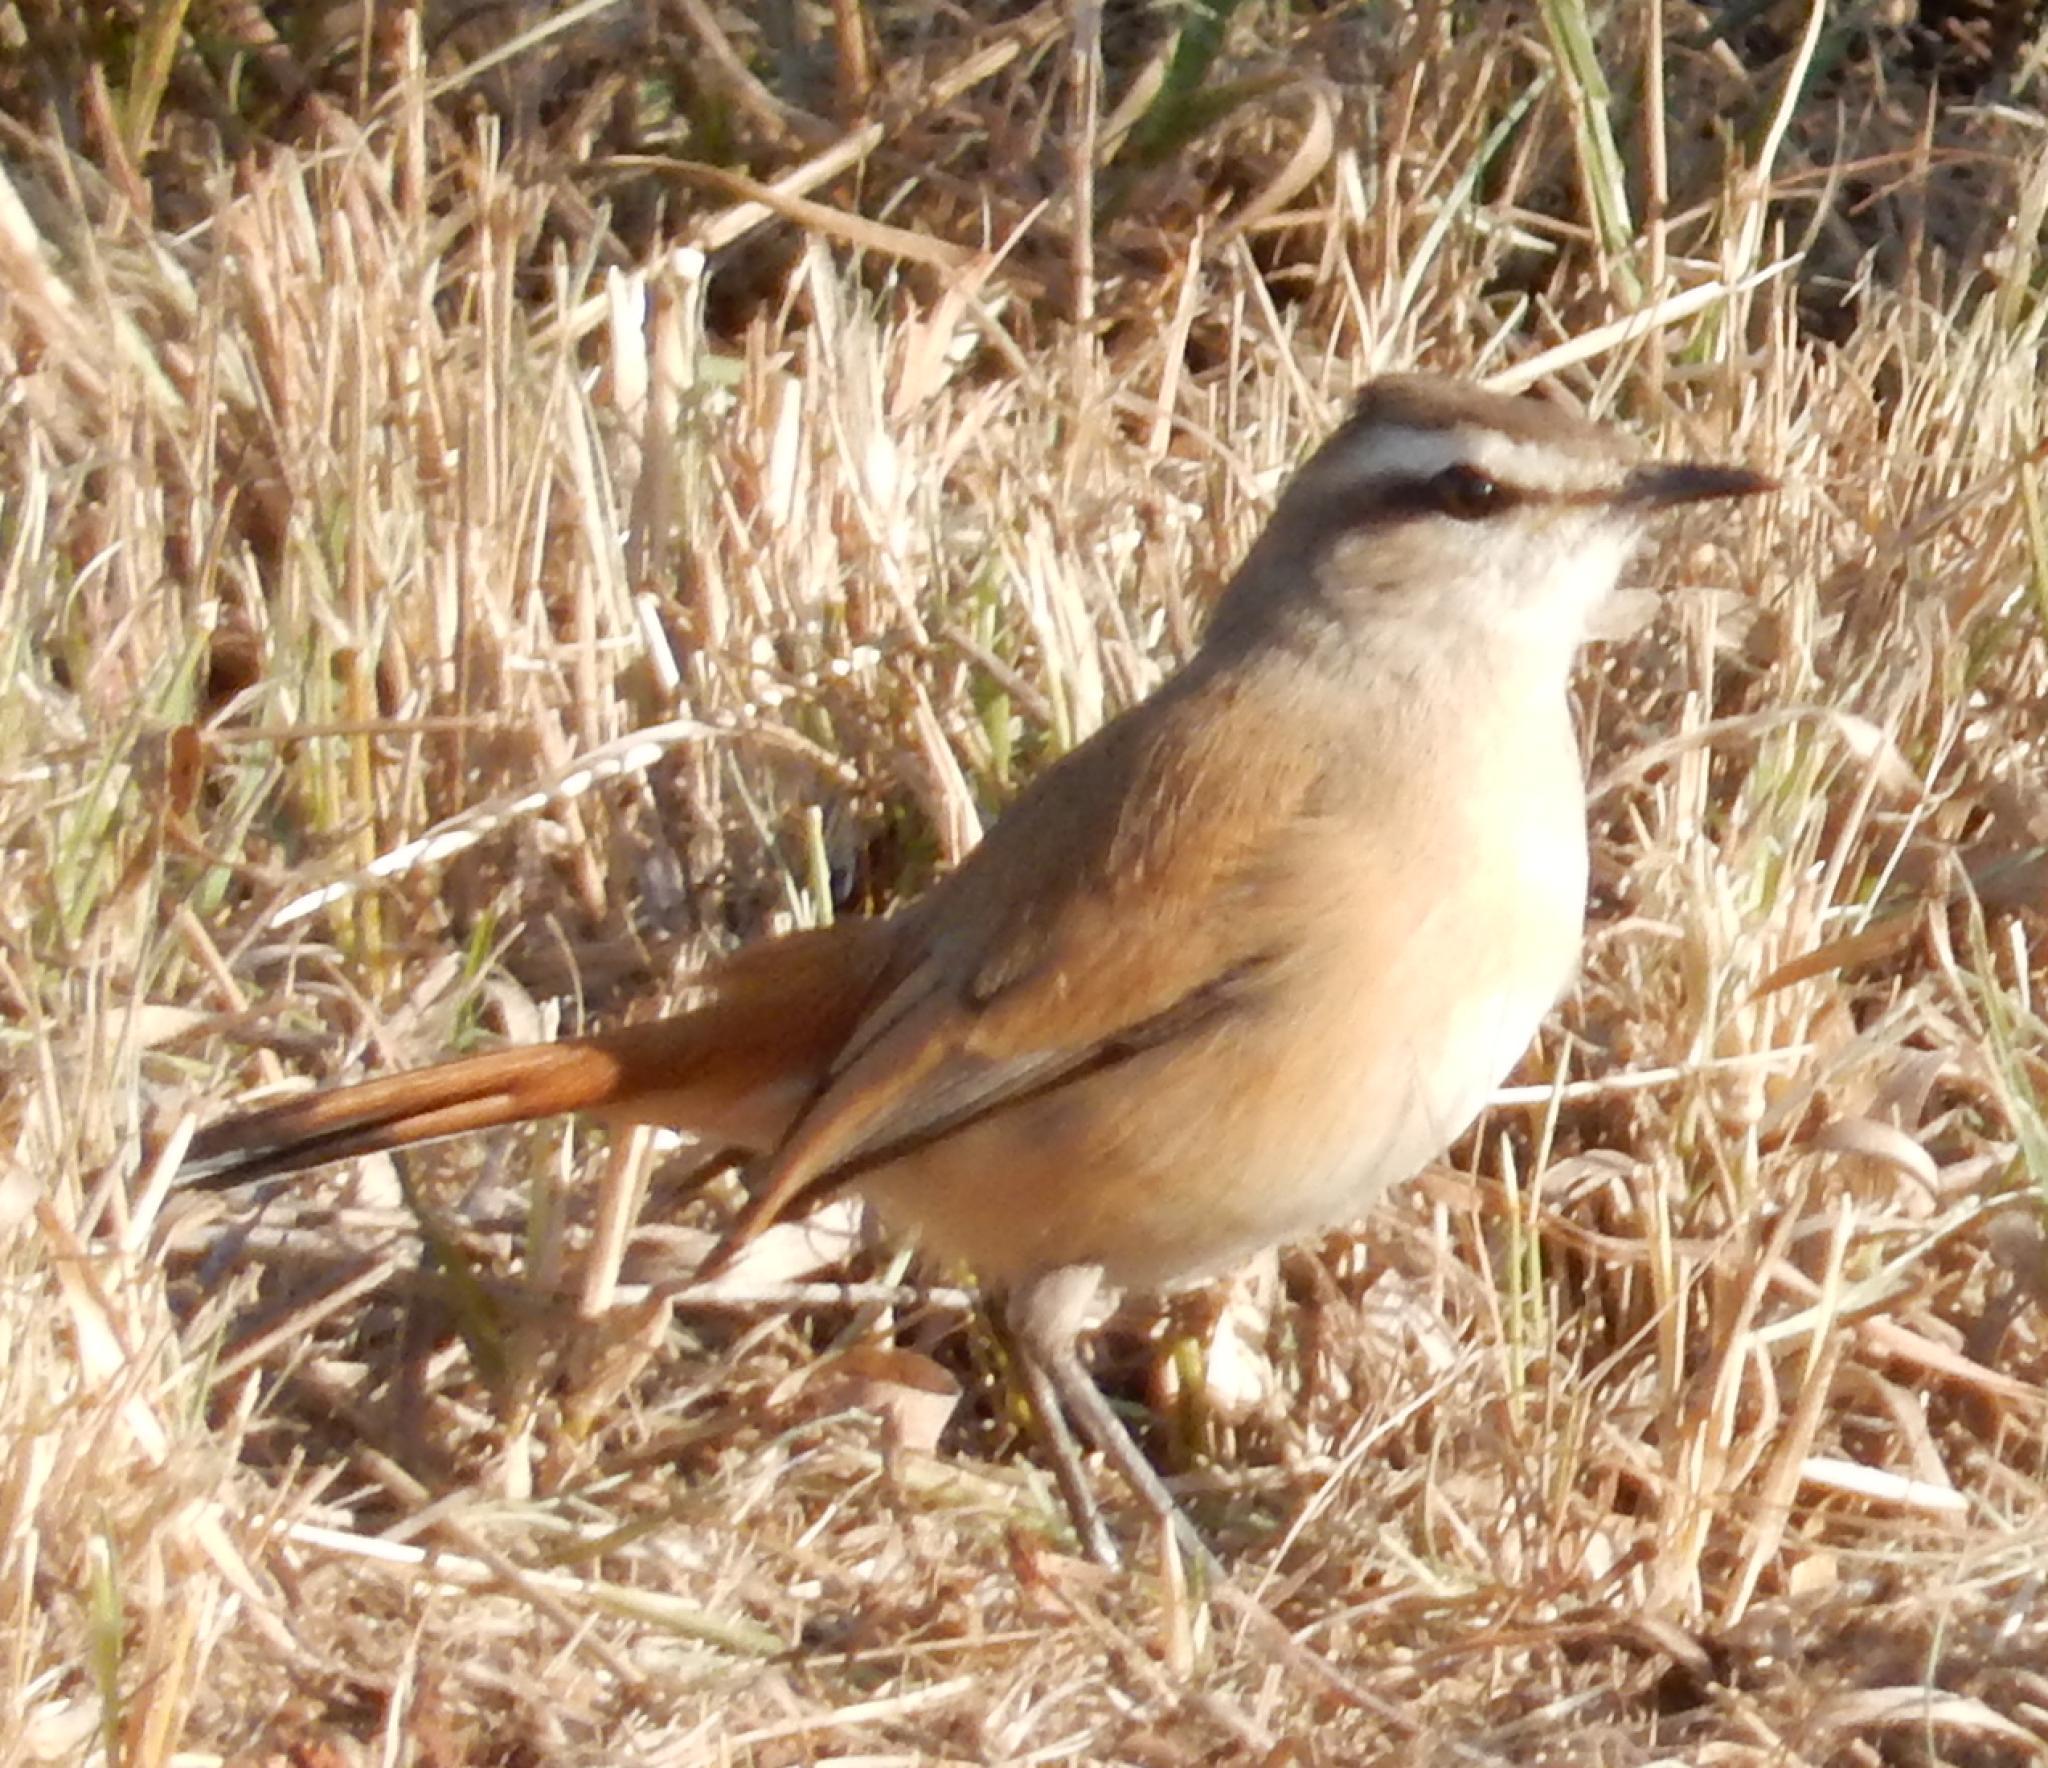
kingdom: Animalia
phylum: Chordata
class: Aves
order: Passeriformes
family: Muscicapidae
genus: Erythropygia
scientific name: Erythropygia paena
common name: Kalahari scrub robin
